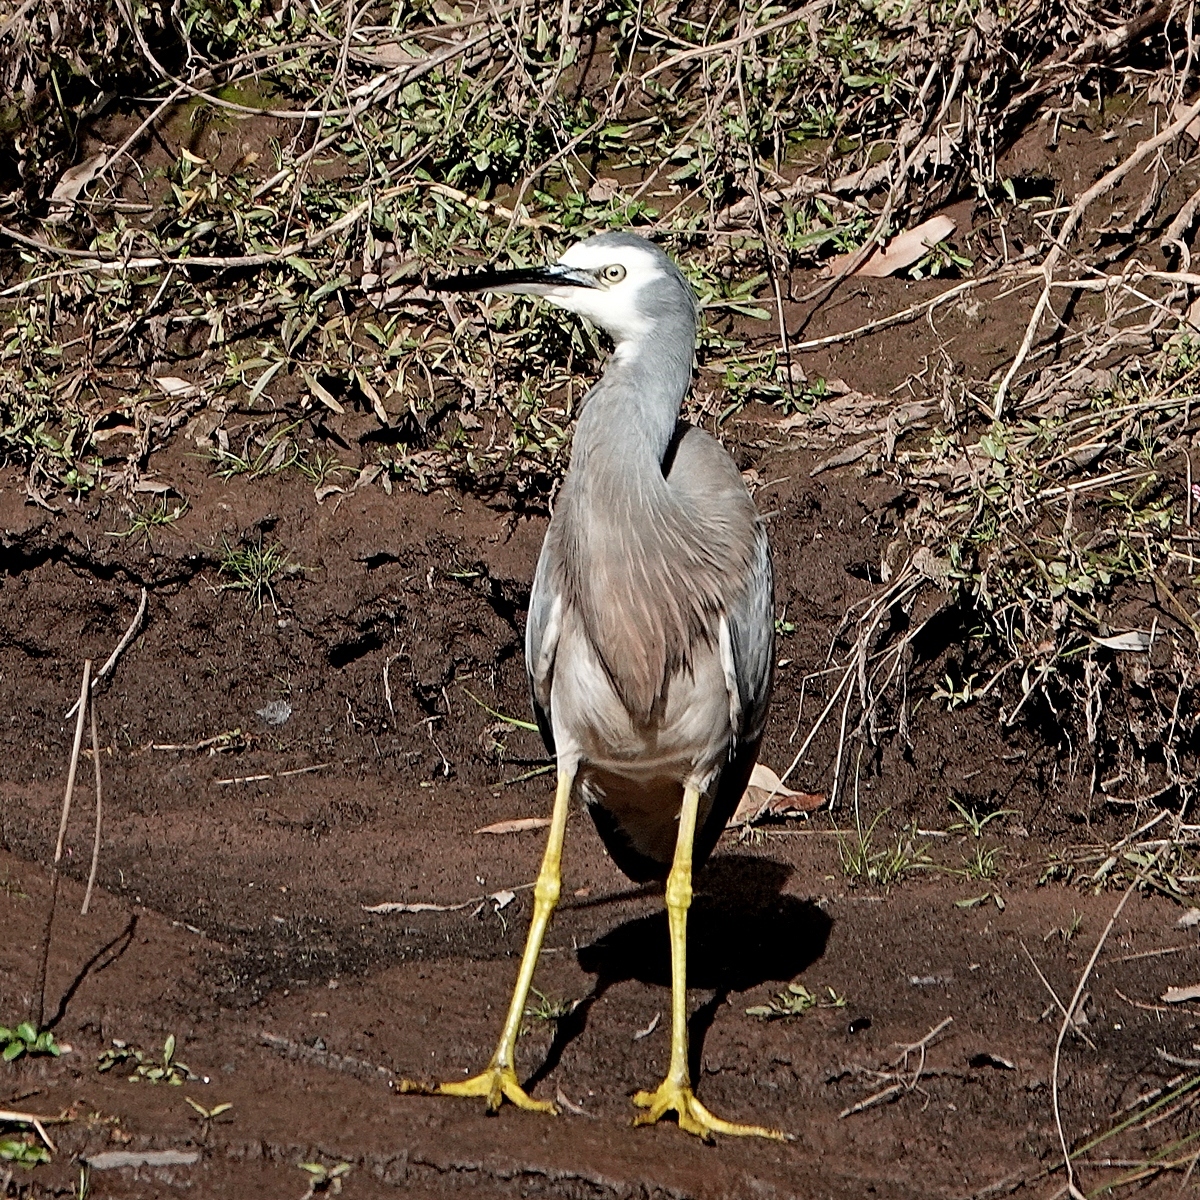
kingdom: Animalia
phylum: Chordata
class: Aves
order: Pelecaniformes
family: Ardeidae
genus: Egretta
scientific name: Egretta novaehollandiae
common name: White-faced heron
